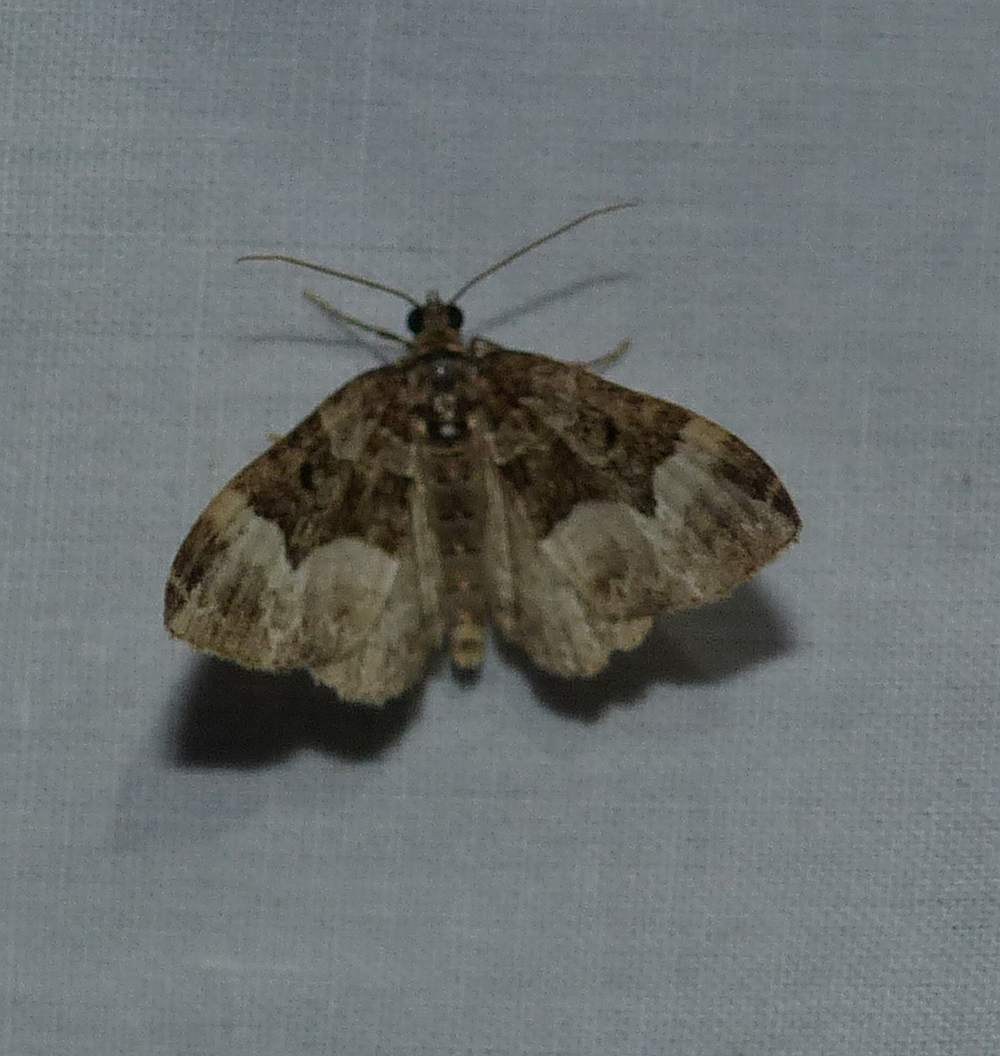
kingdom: Animalia
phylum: Arthropoda
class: Insecta
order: Lepidoptera
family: Geometridae
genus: Euphyia
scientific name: Euphyia intermediata
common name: Sharp-angled carpet
